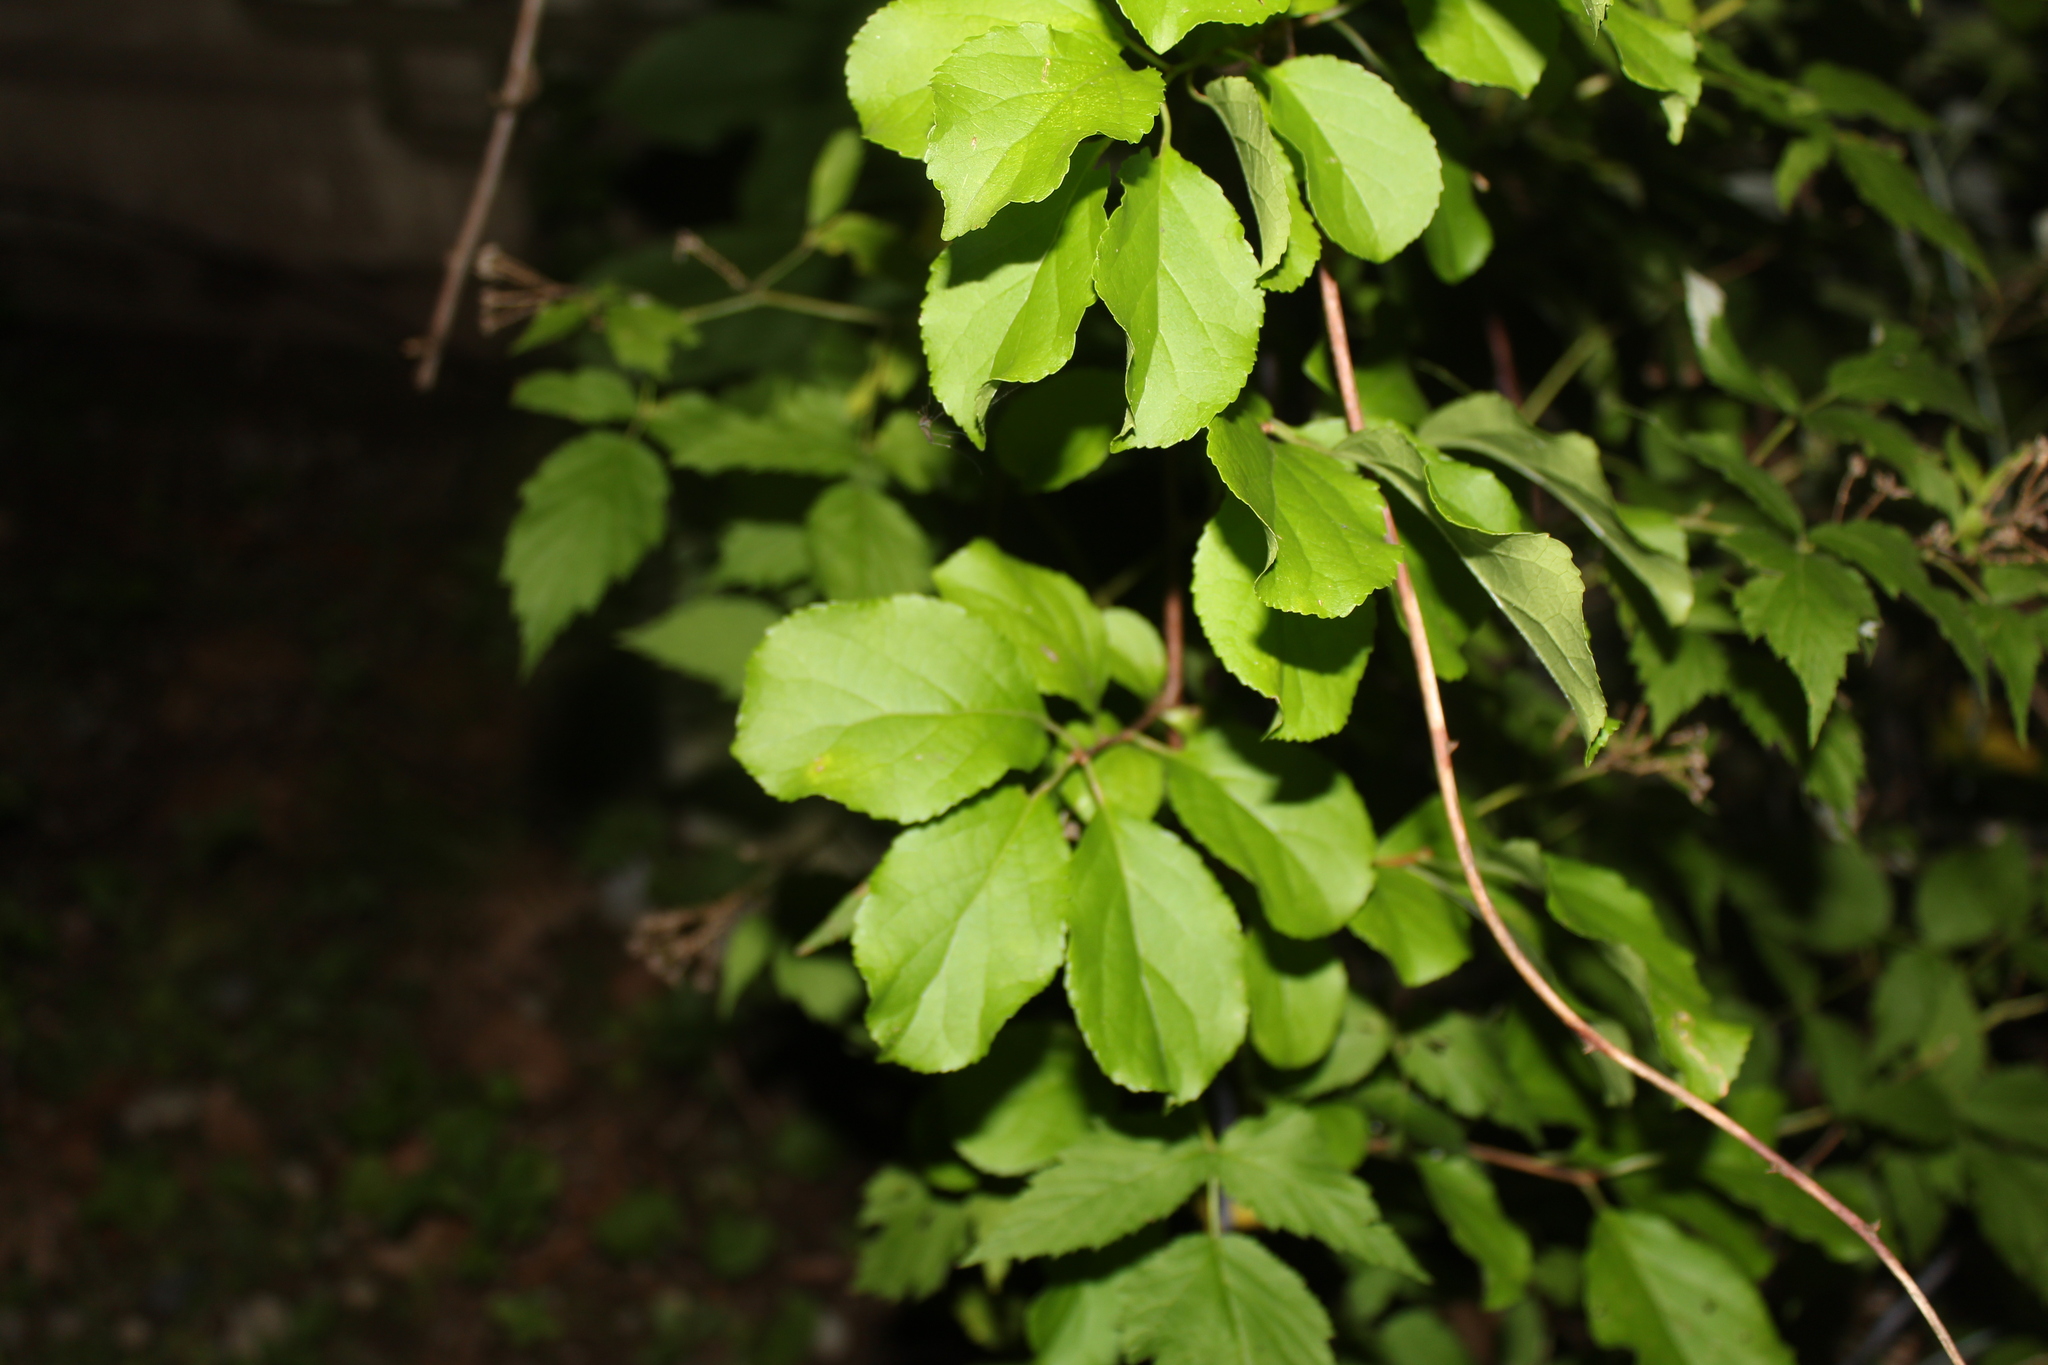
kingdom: Plantae
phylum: Tracheophyta
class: Magnoliopsida
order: Celastrales
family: Celastraceae
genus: Celastrus
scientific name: Celastrus orbiculatus
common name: Oriental bittersweet
